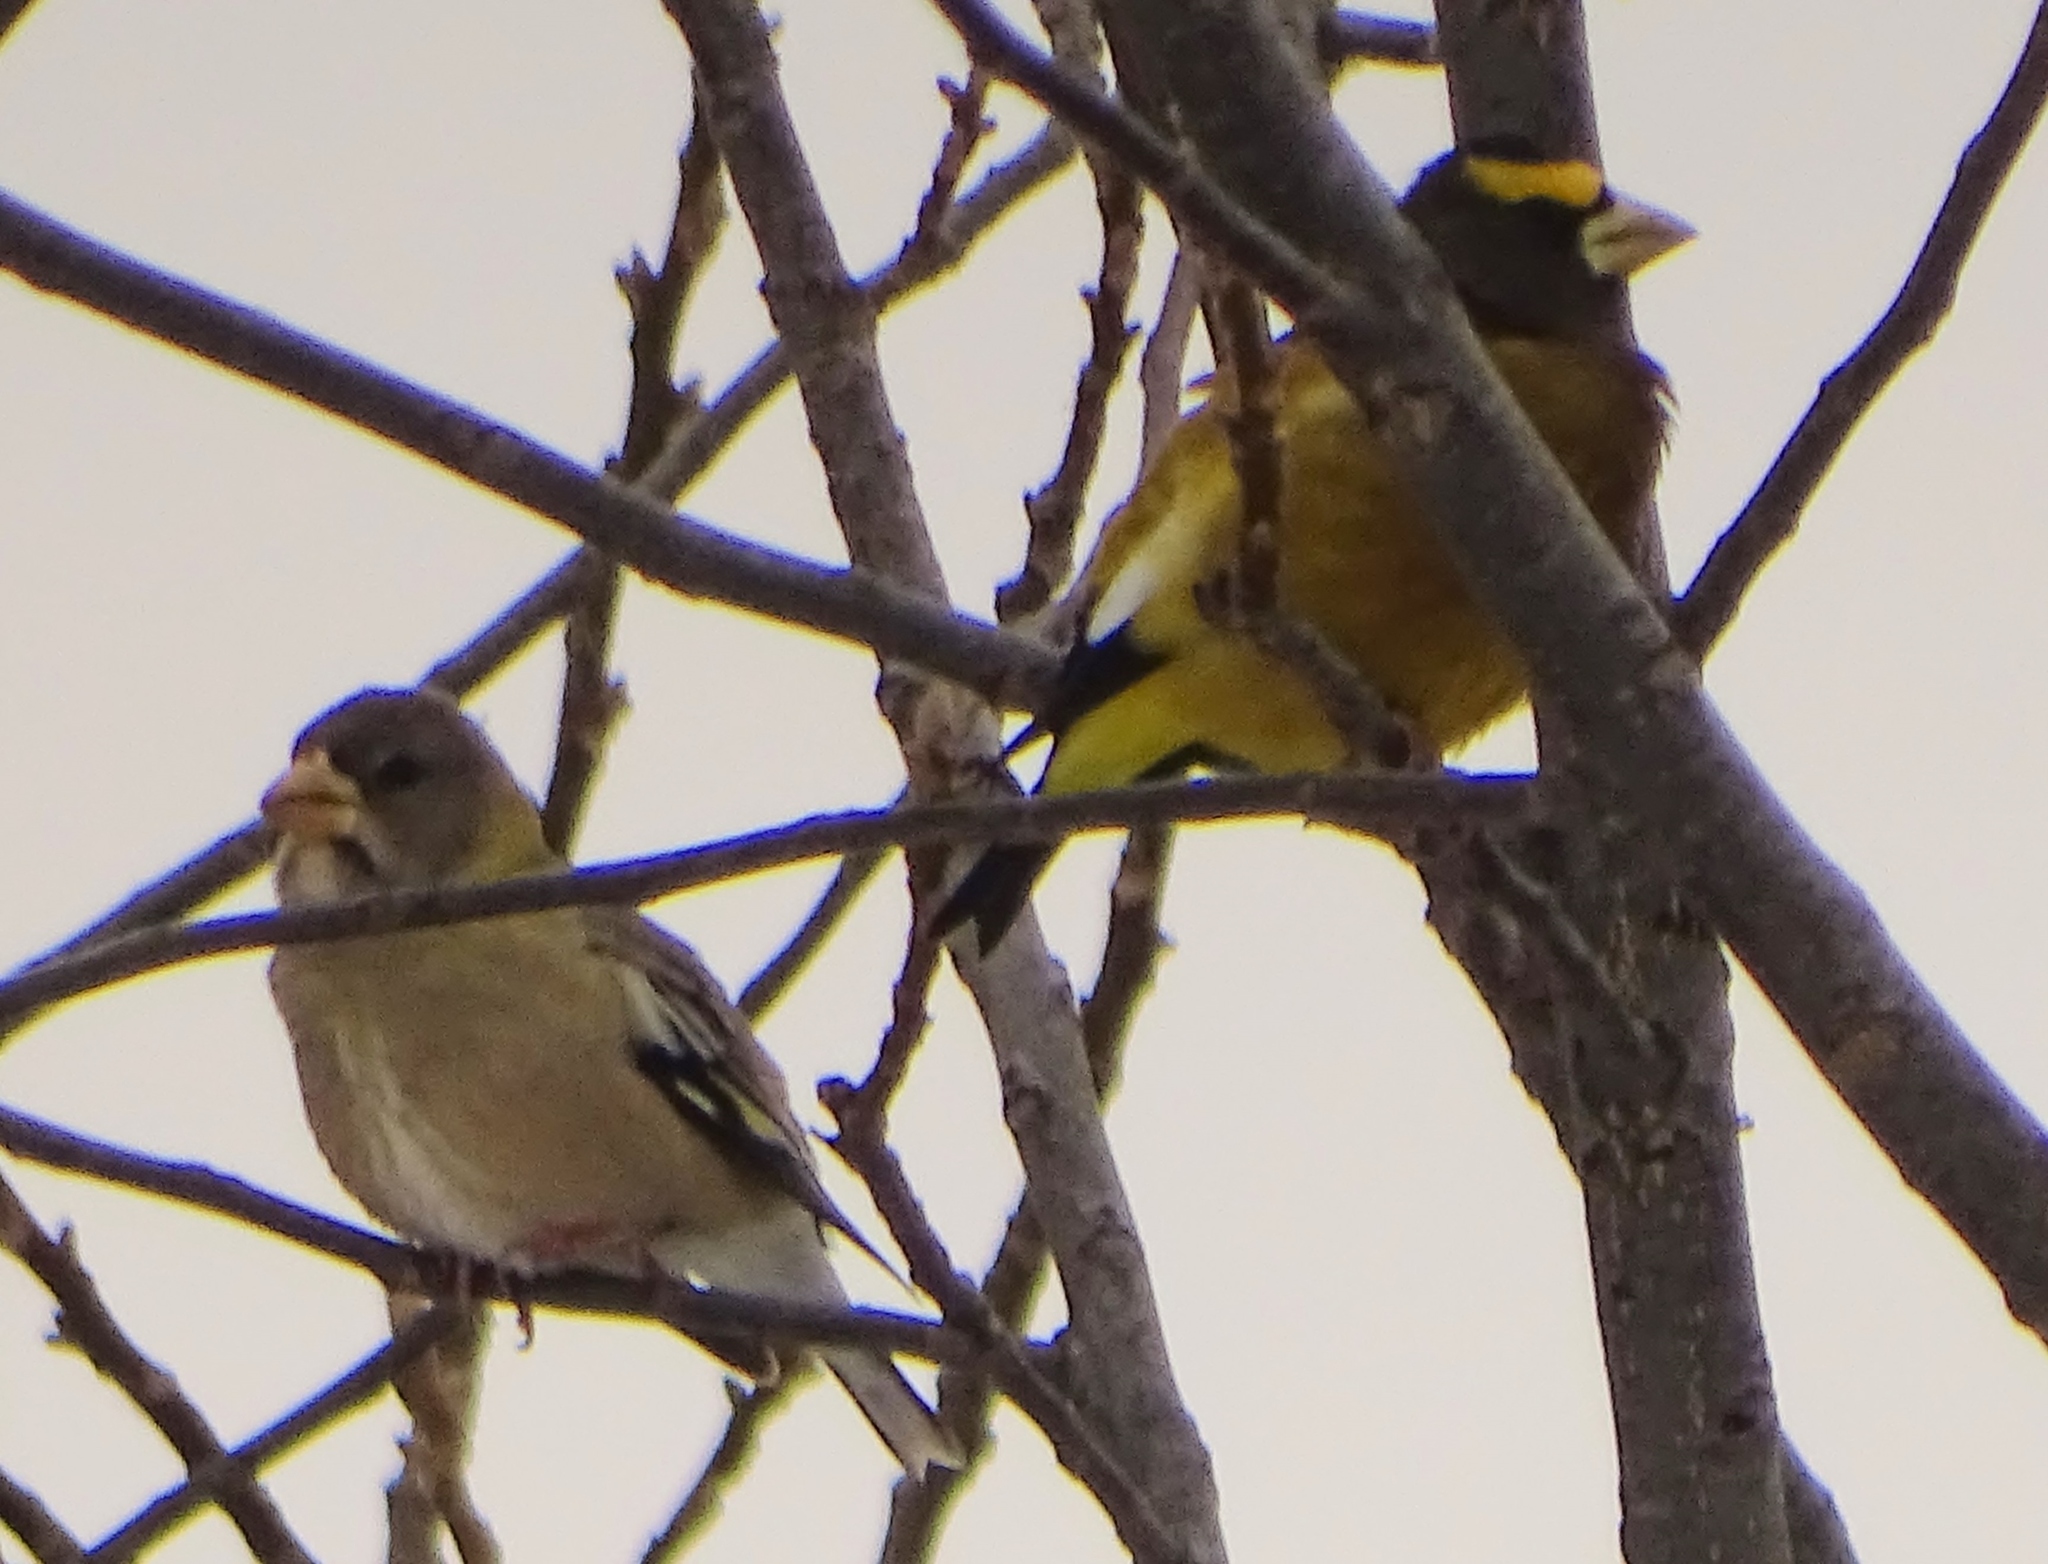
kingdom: Animalia
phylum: Chordata
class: Aves
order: Passeriformes
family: Fringillidae
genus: Hesperiphona
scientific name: Hesperiphona vespertina
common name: Evening grosbeak
